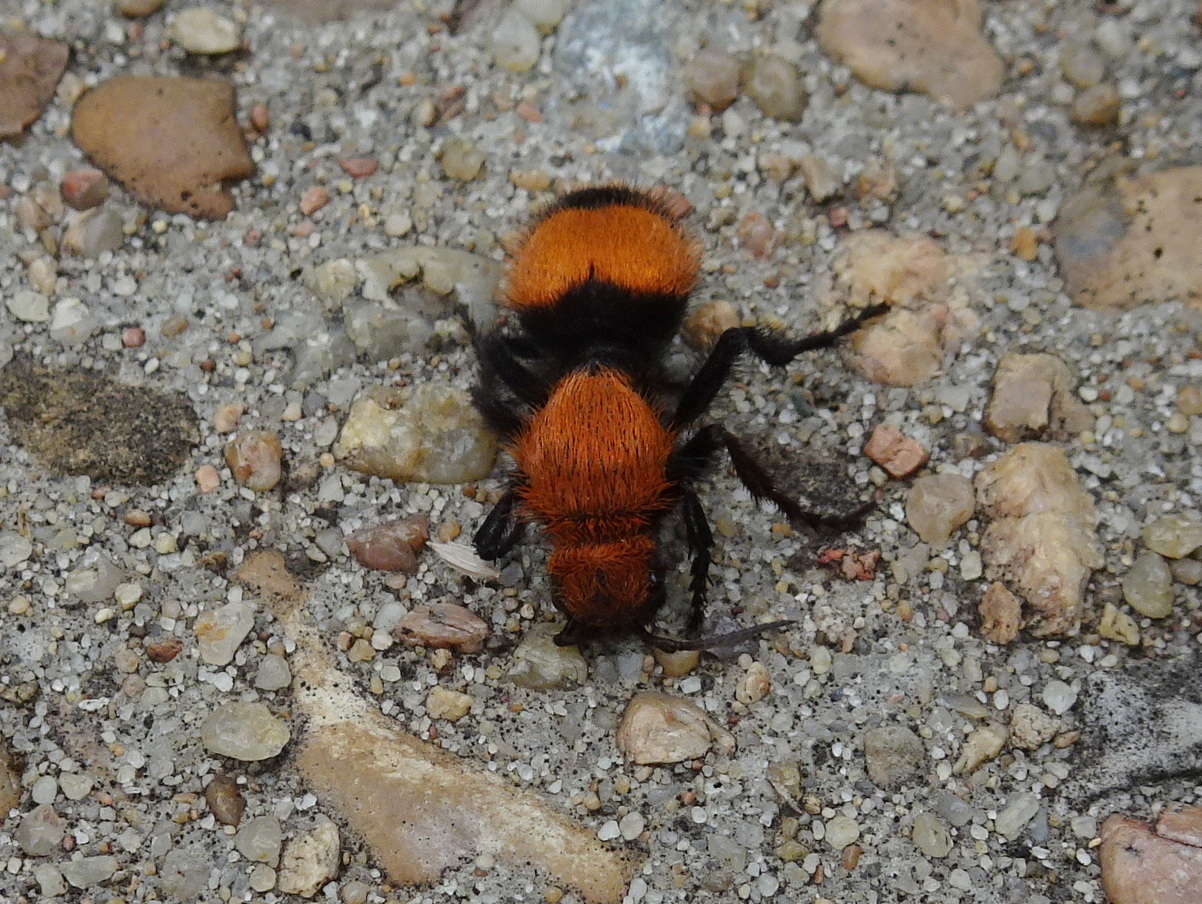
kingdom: Animalia
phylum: Arthropoda
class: Insecta
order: Hymenoptera
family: Mutillidae
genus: Dasymutilla
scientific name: Dasymutilla occidentalis
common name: Common eastern velvet ant
